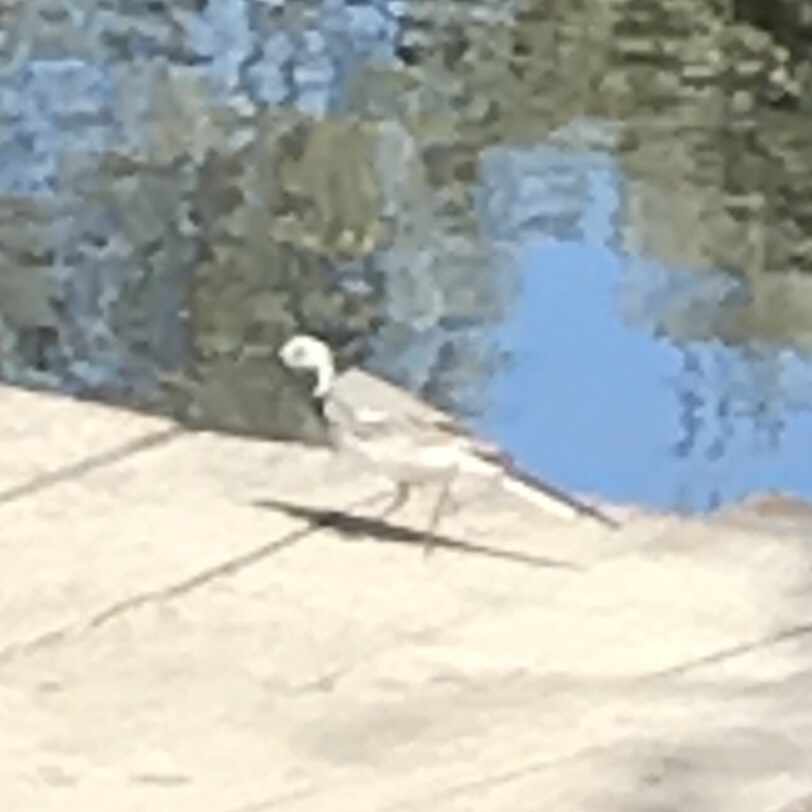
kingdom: Animalia
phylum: Chordata
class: Aves
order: Passeriformes
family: Motacillidae
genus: Motacilla
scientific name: Motacilla alba
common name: White wagtail
